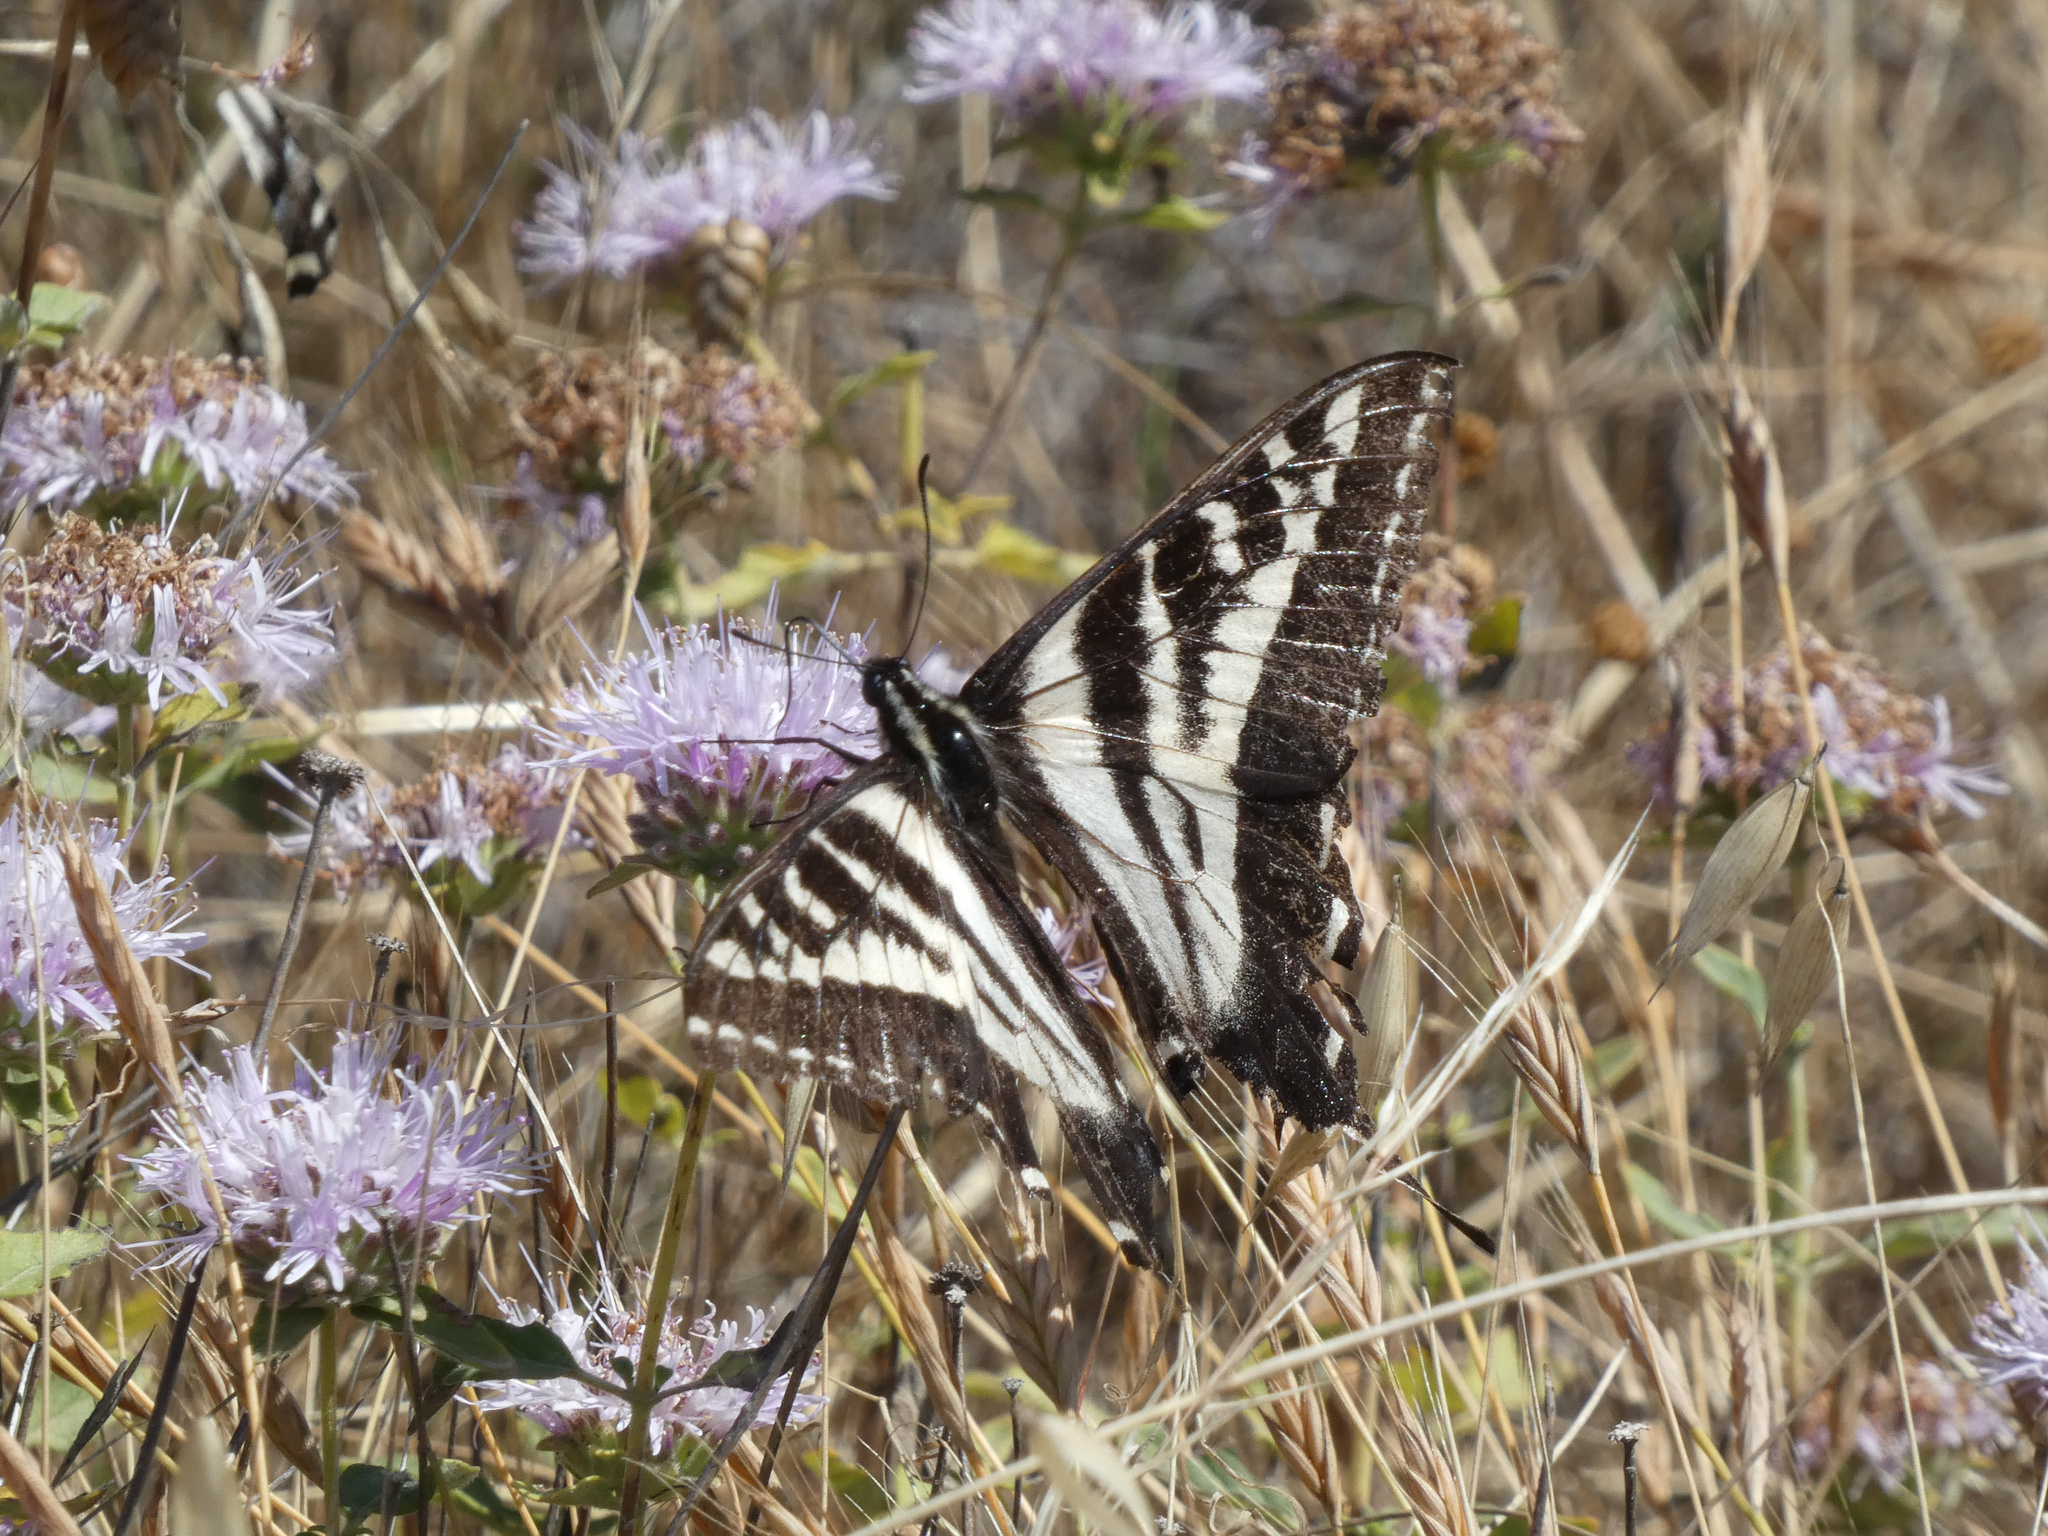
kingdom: Animalia
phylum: Arthropoda
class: Insecta
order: Lepidoptera
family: Papilionidae
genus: Papilio
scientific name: Papilio eurymedon
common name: Pale tiger swallowtail
